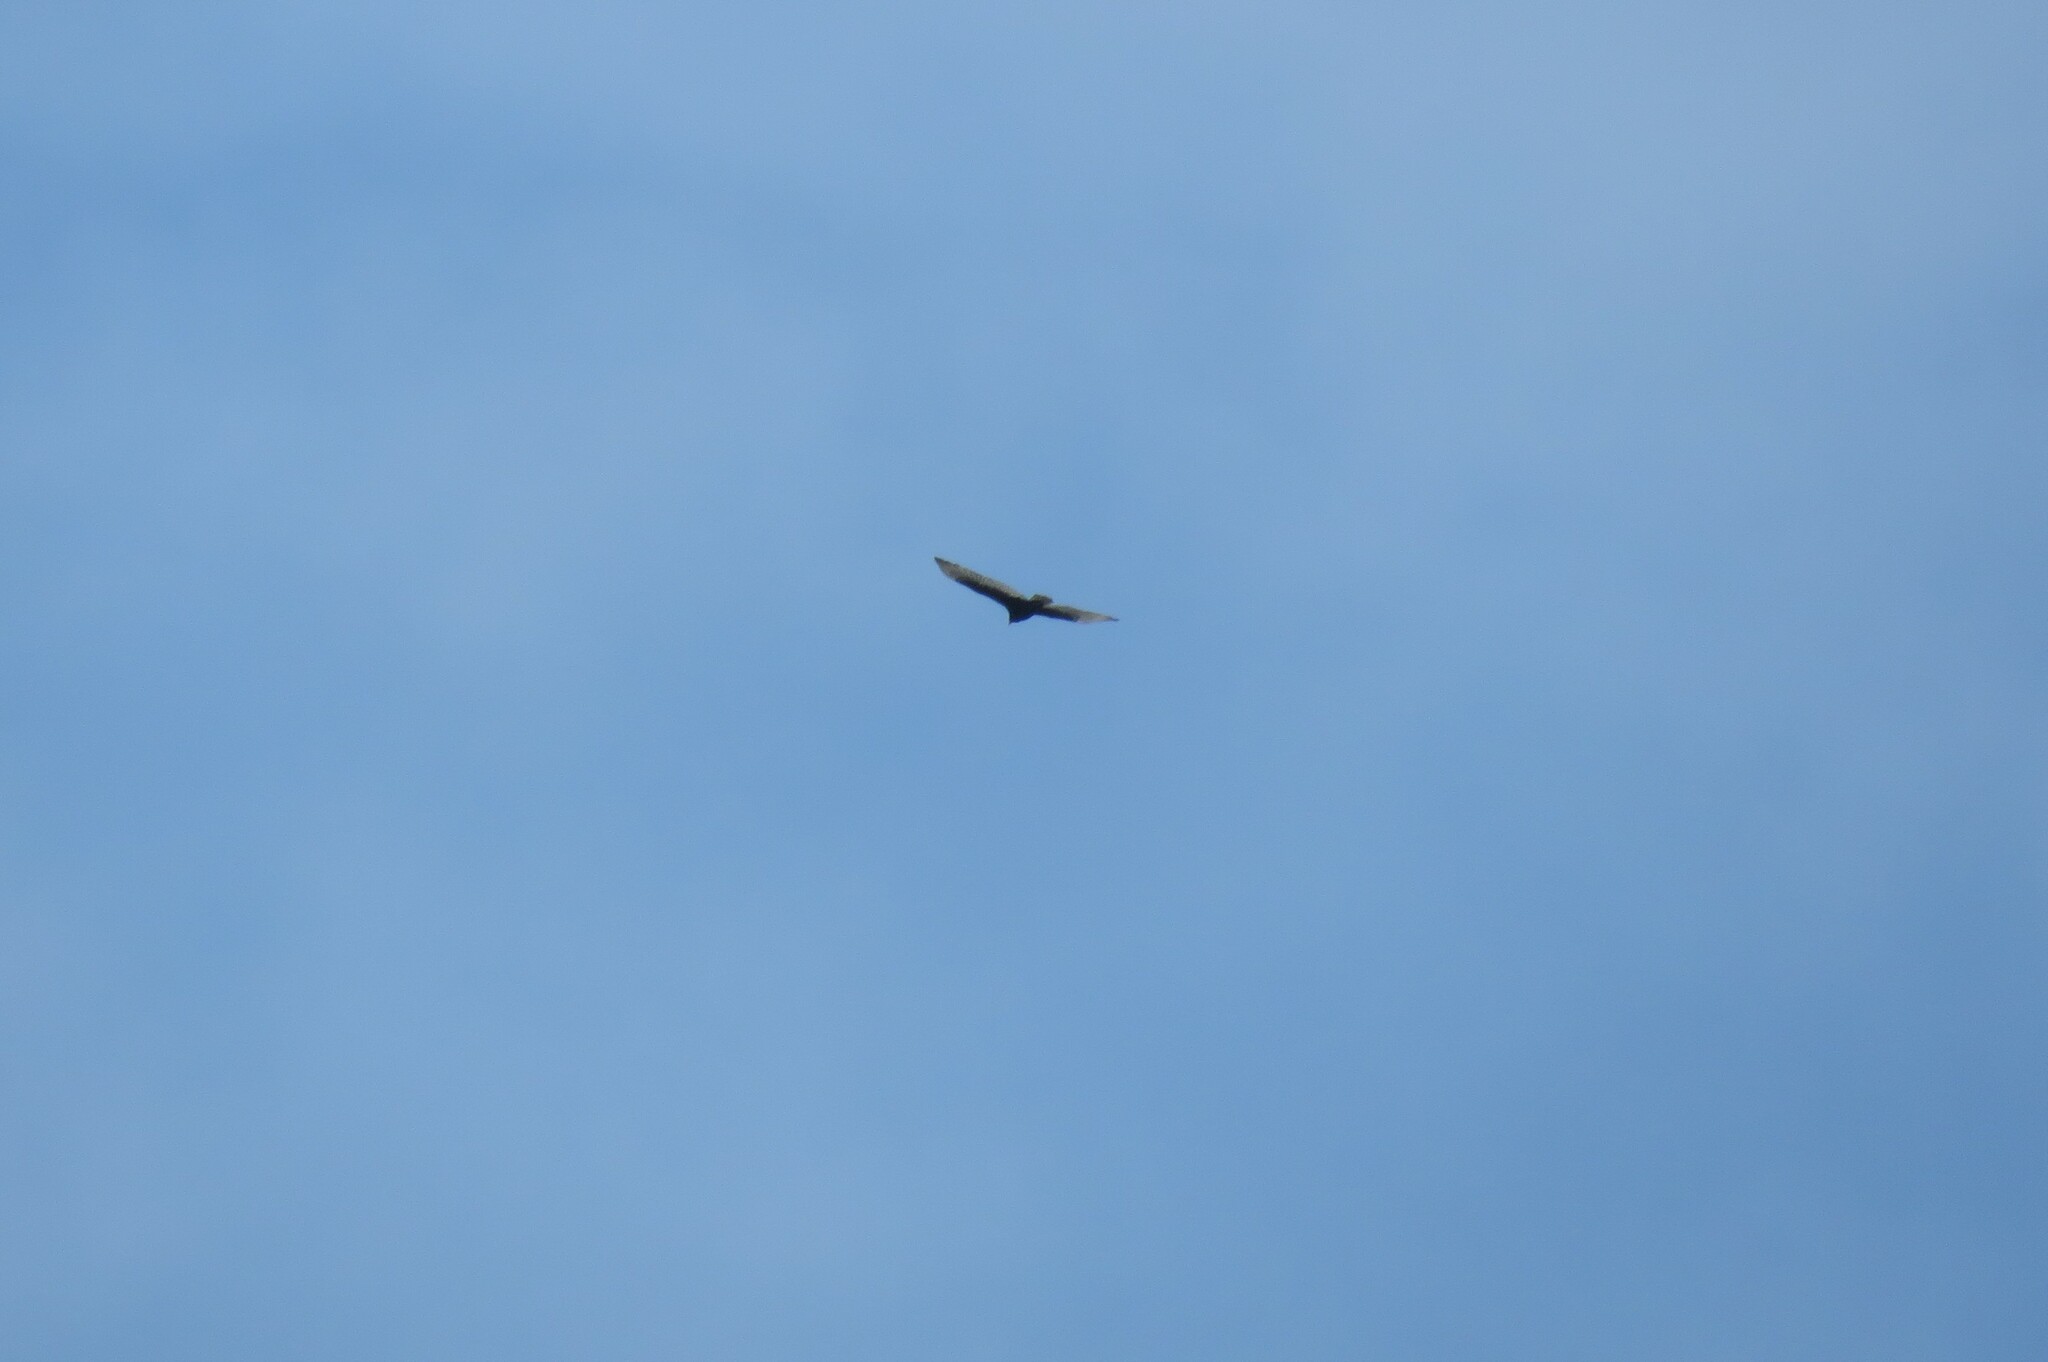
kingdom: Animalia
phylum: Chordata
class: Aves
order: Accipitriformes
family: Cathartidae
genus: Cathartes
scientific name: Cathartes aura
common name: Turkey vulture
